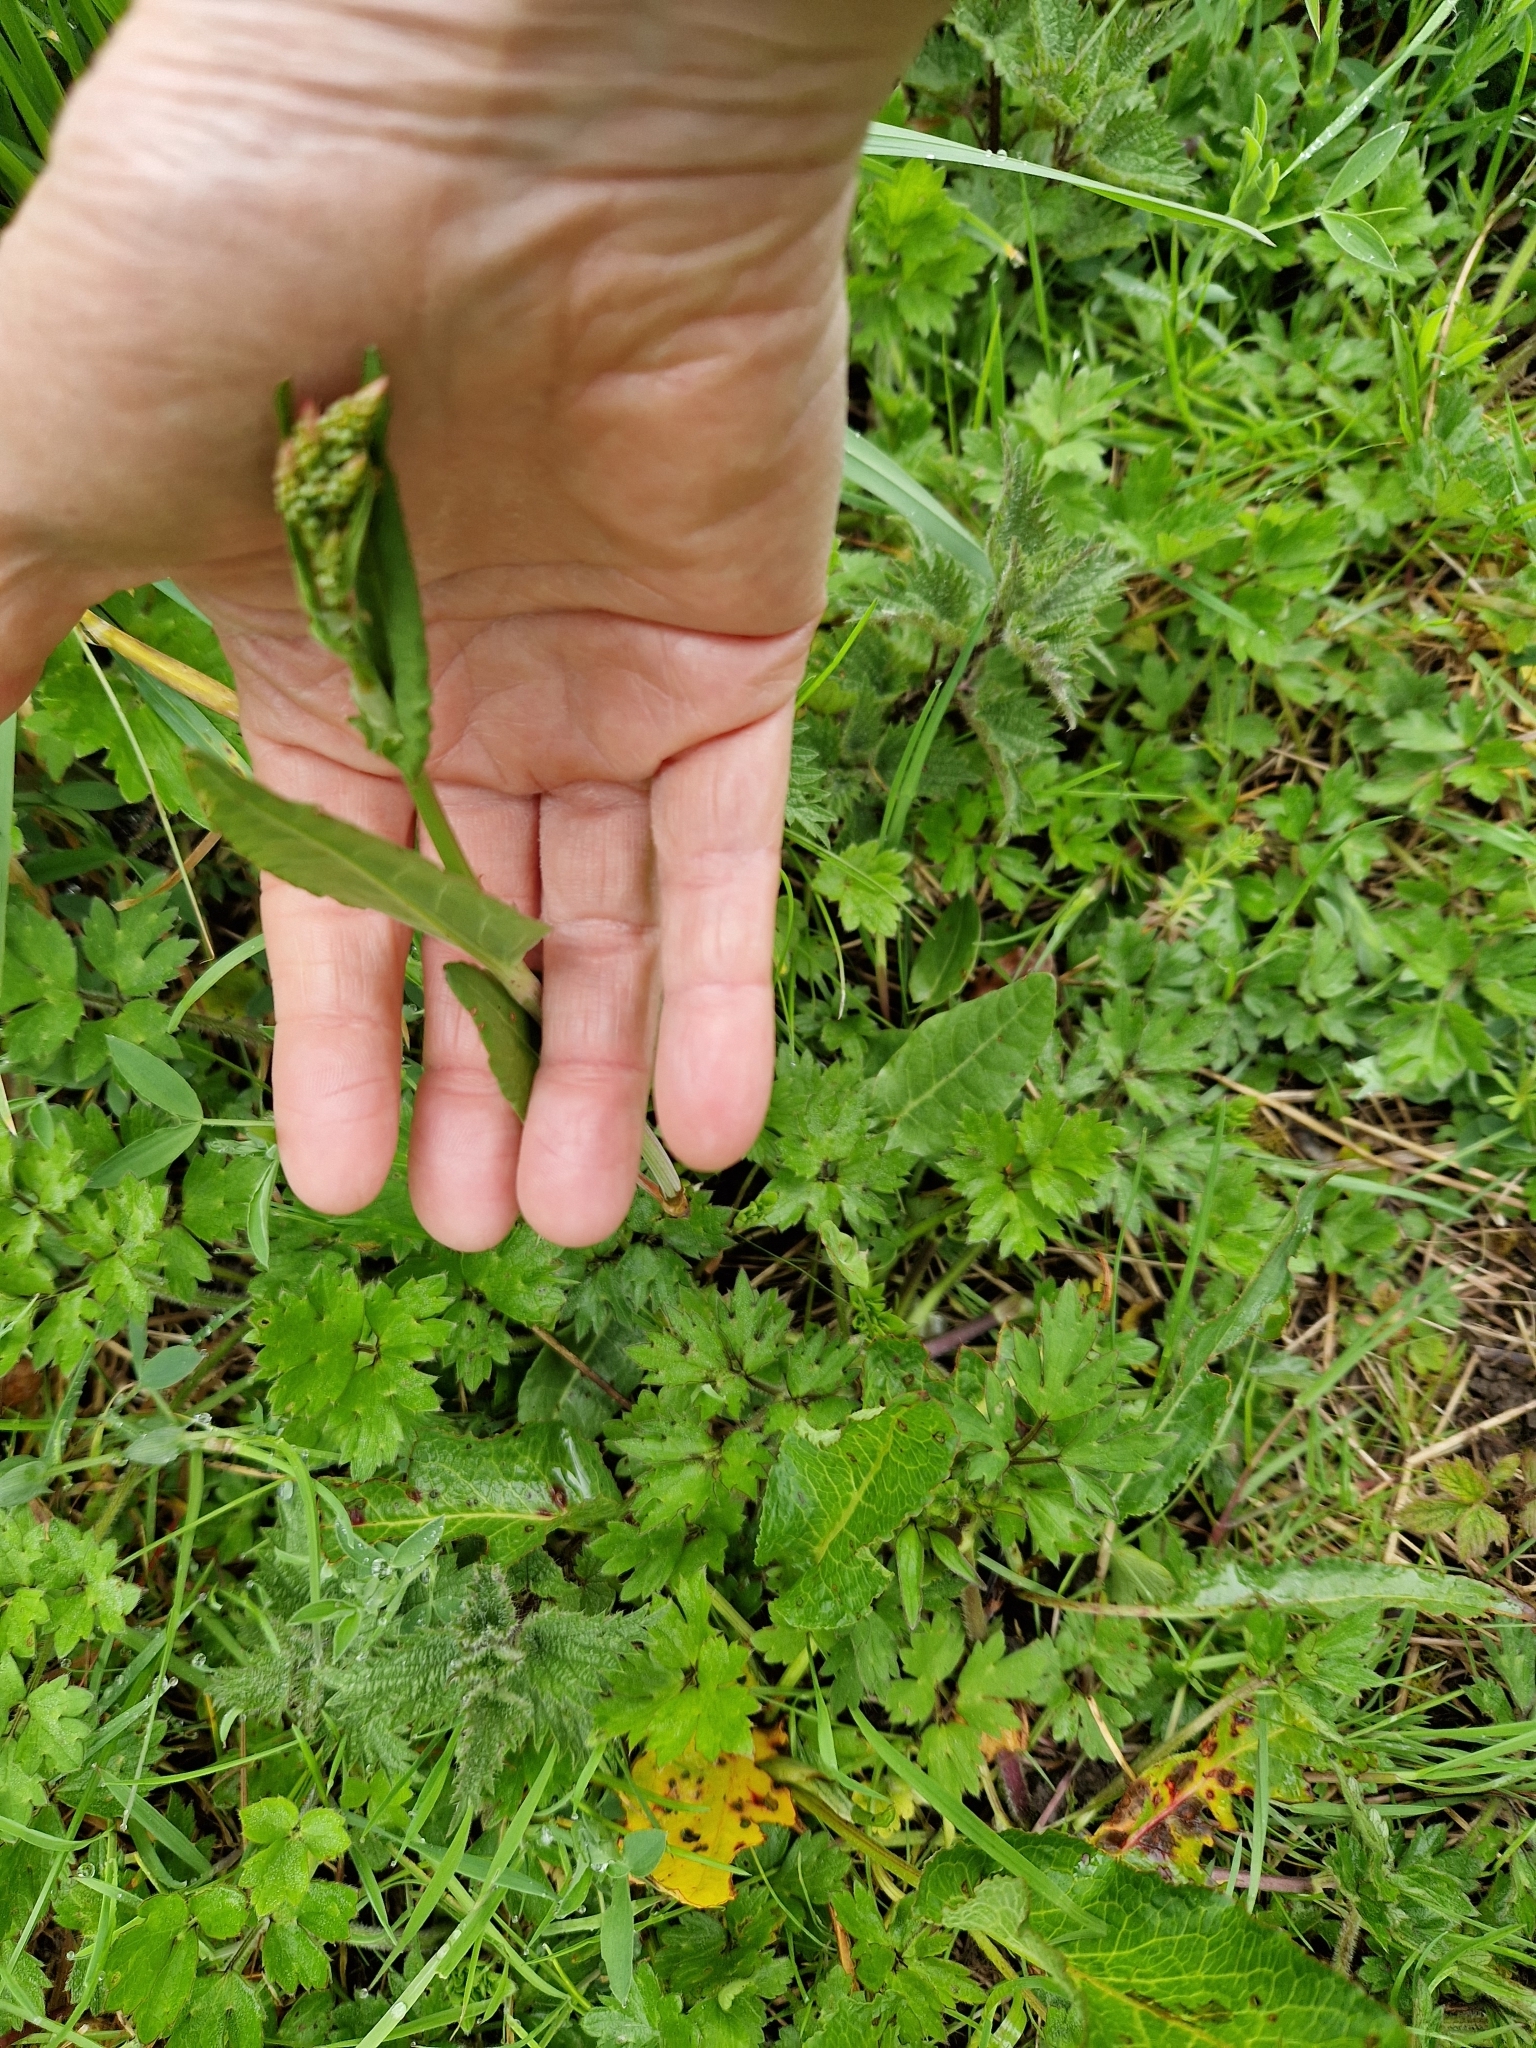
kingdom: Plantae
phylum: Tracheophyta
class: Magnoliopsida
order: Caryophyllales
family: Polygonaceae
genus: Rumex
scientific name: Rumex acetosa
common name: Garden sorrel
